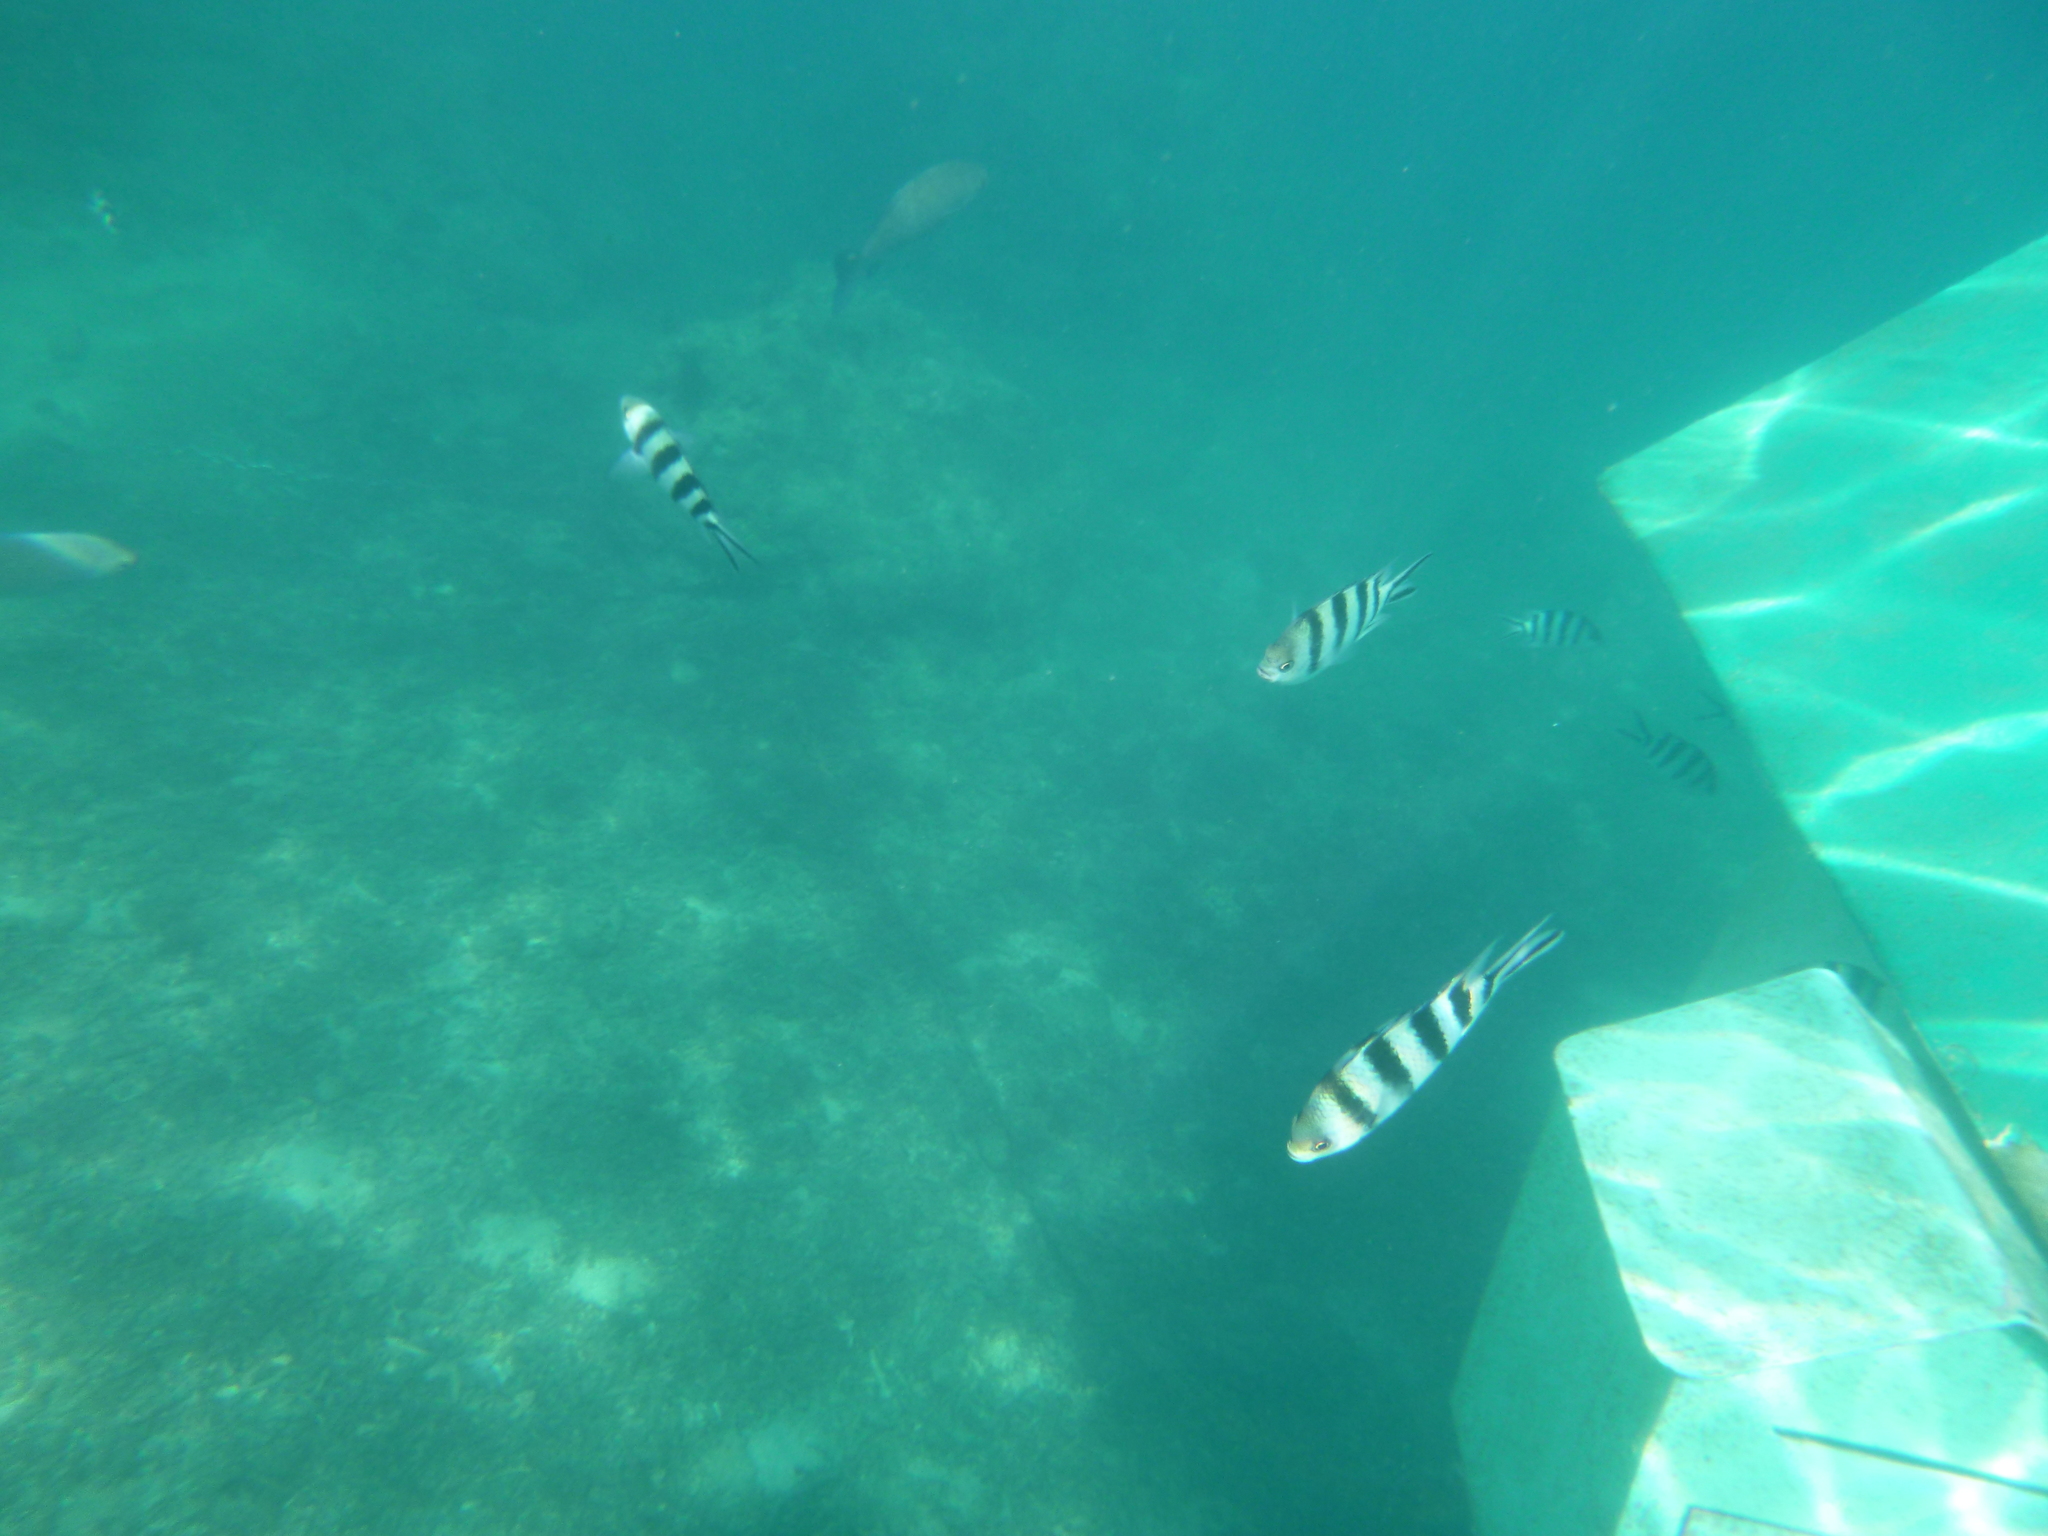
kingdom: Animalia
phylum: Chordata
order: Perciformes
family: Pomacentridae
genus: Abudefduf
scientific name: Abudefduf sexfasciatus
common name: Scissortail sergeant
